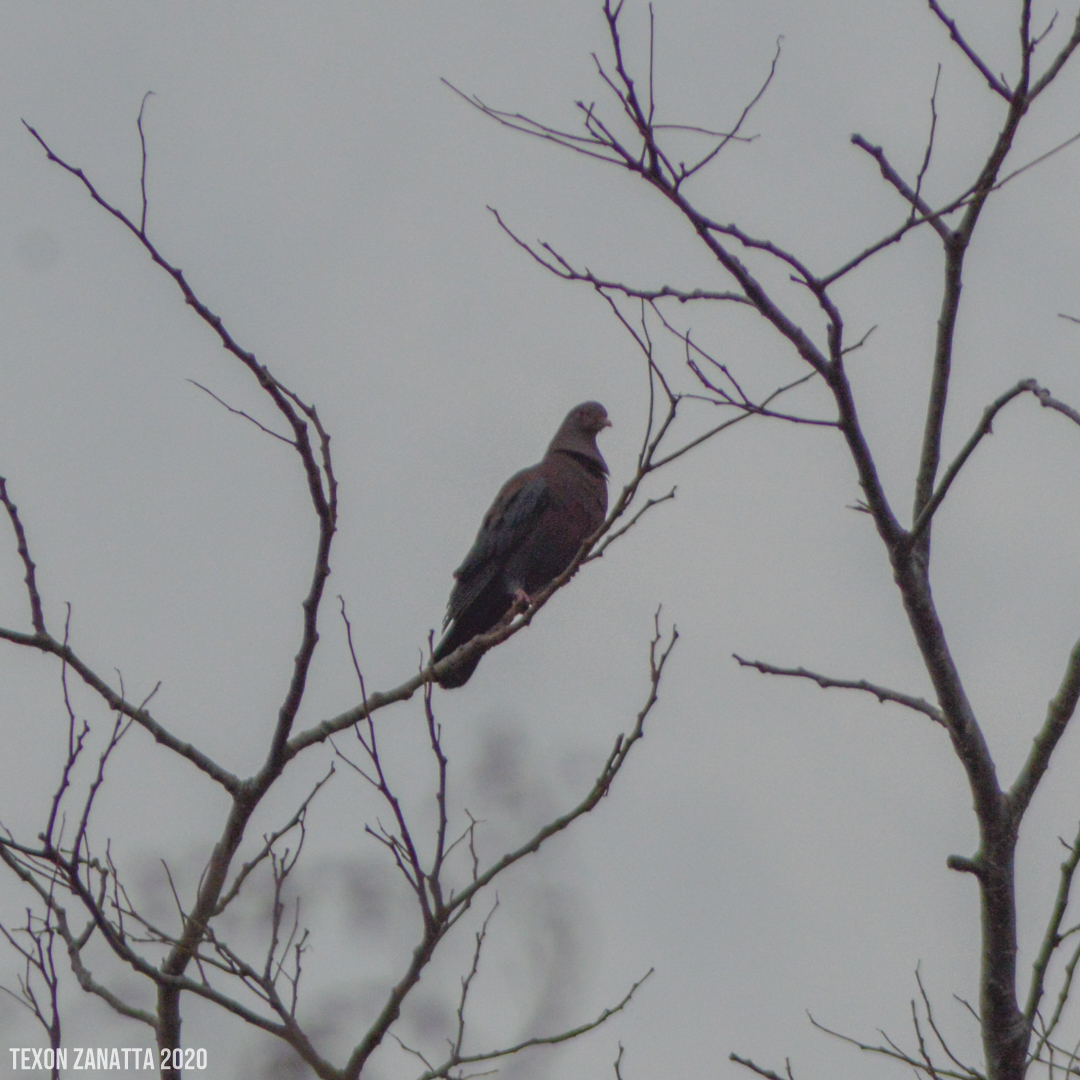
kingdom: Animalia
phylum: Chordata
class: Aves
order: Columbiformes
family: Columbidae
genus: Patagioenas
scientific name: Patagioenas flavirostris
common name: Red-billed pigeon
